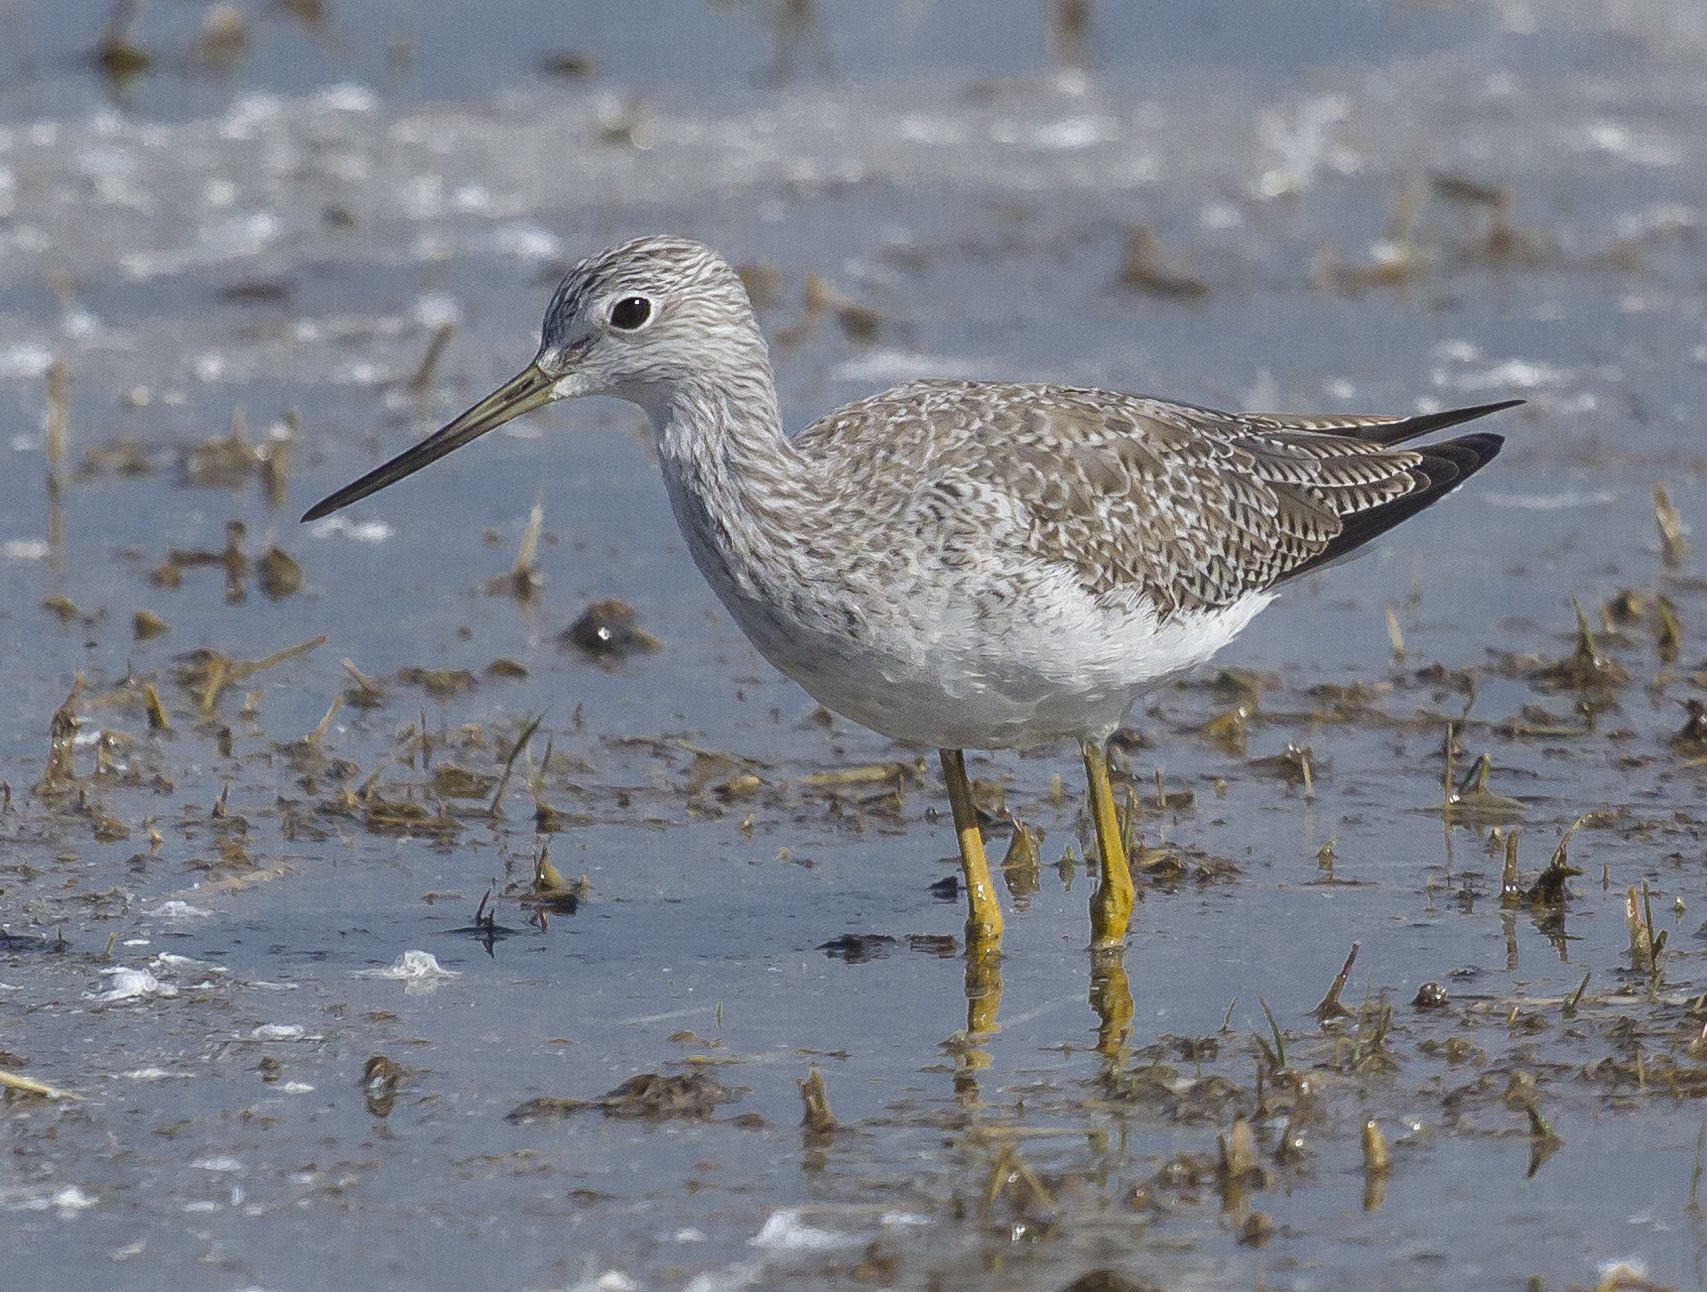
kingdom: Animalia
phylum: Chordata
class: Aves
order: Charadriiformes
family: Scolopacidae
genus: Tringa
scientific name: Tringa melanoleuca
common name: Greater yellowlegs
